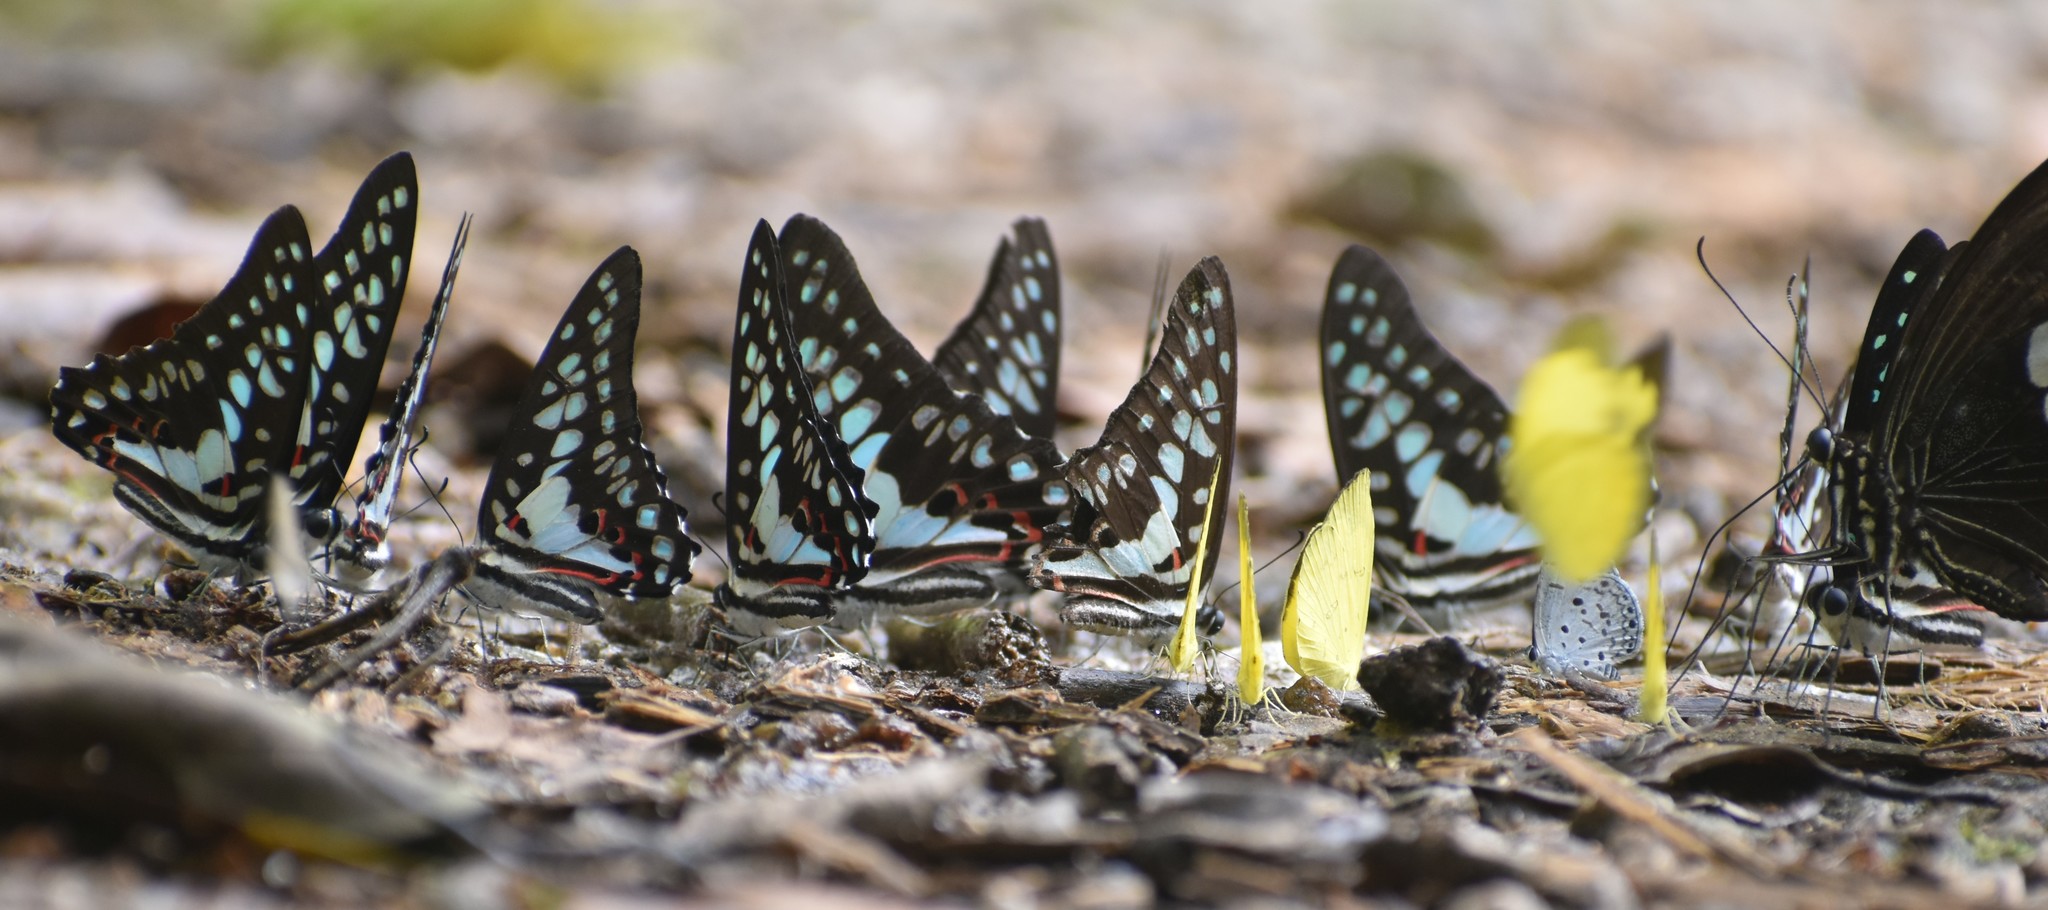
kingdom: Animalia
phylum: Arthropoda
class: Insecta
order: Lepidoptera
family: Papilionidae
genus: Graphium
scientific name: Graphium doson
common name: Common jay
